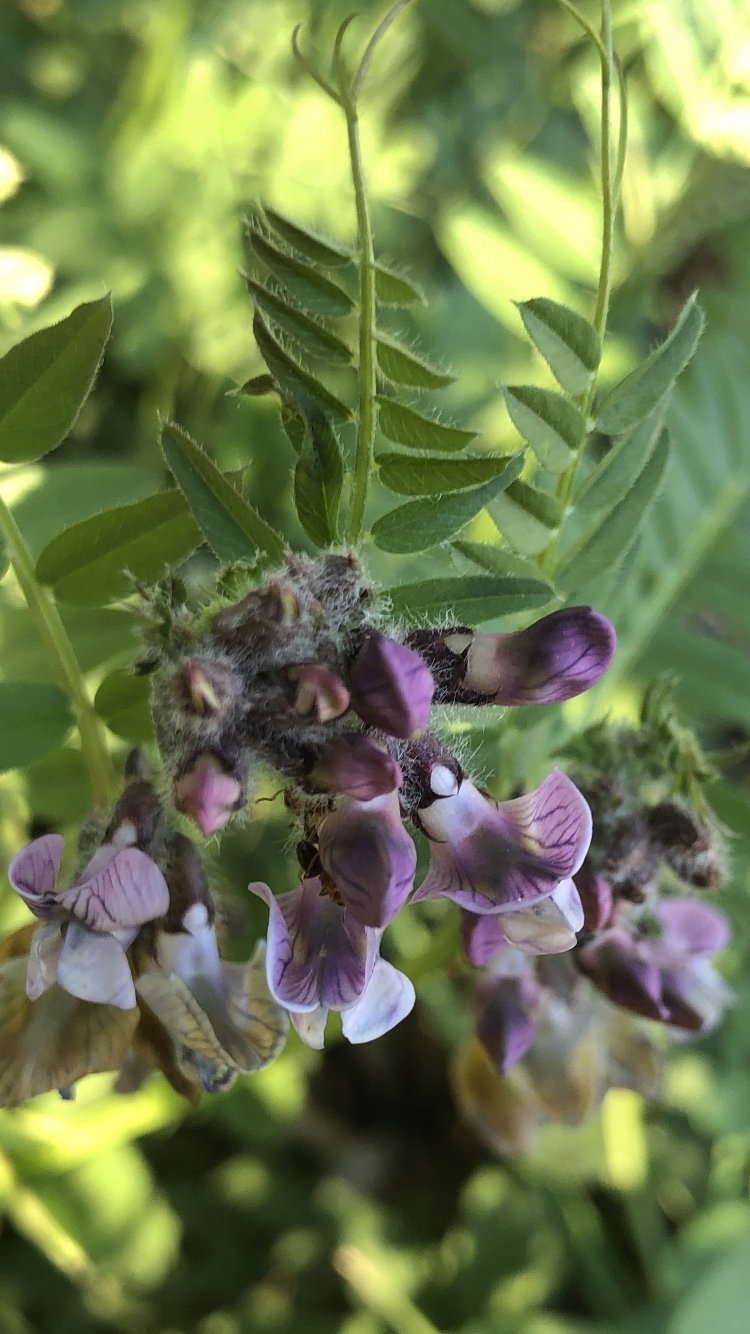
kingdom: Plantae
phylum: Tracheophyta
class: Magnoliopsida
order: Fabales
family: Fabaceae
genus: Vicia
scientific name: Vicia sepium
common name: Bush vetch
